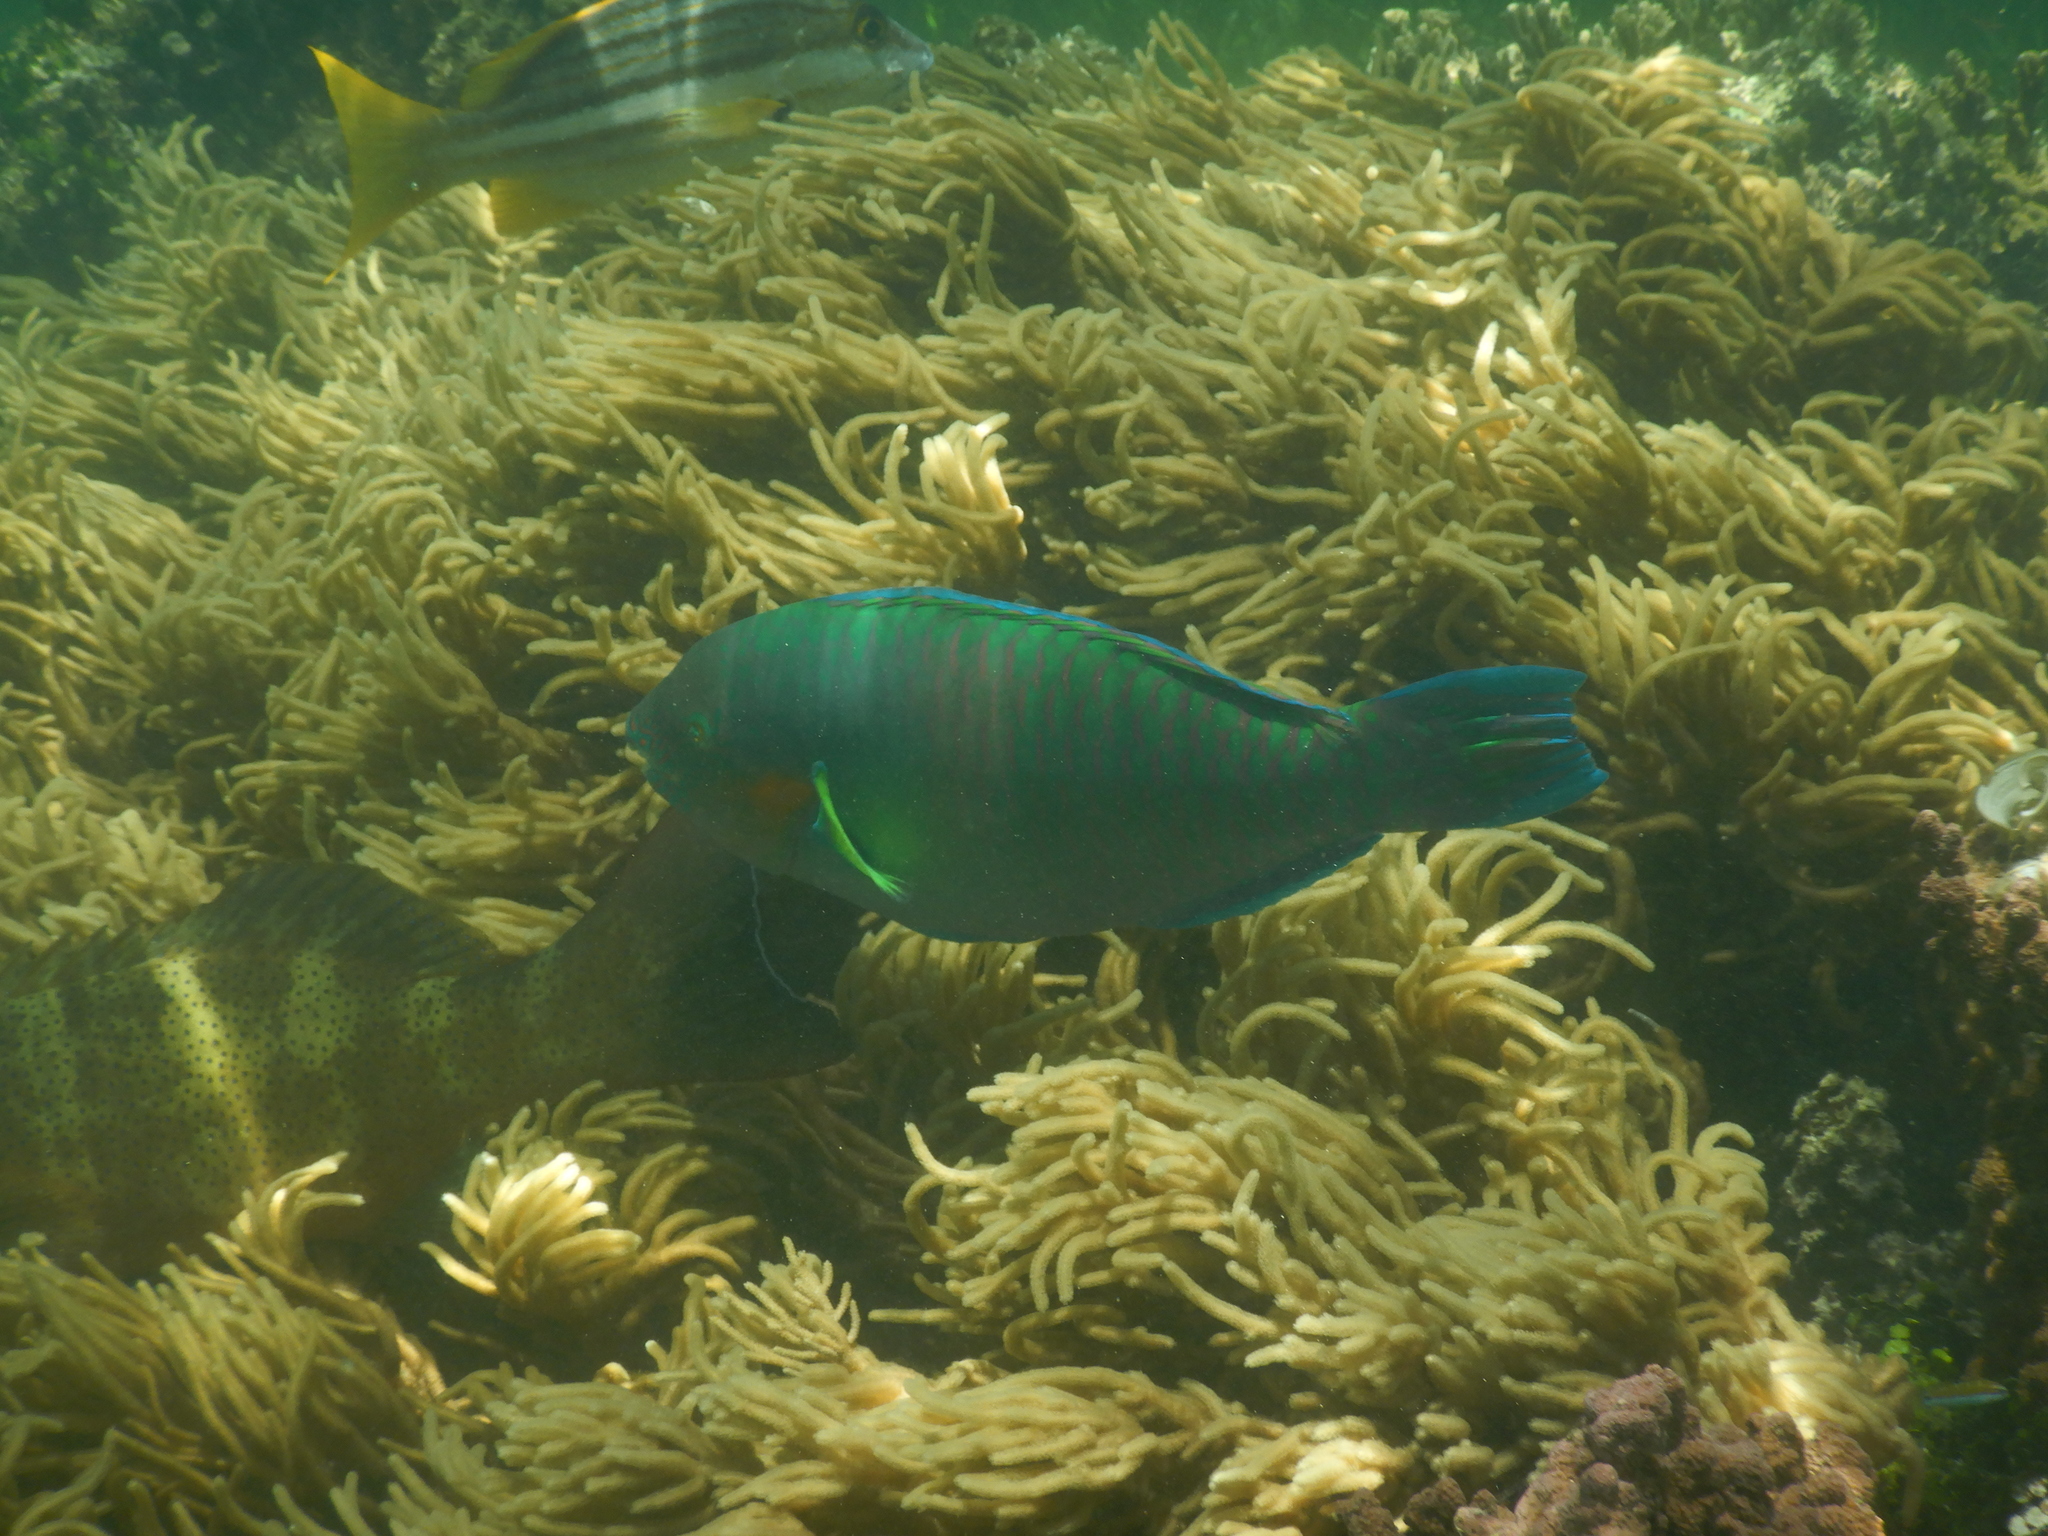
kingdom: Animalia
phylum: Chordata
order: Perciformes
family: Scaridae
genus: Scarus
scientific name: Scarus rivulatus
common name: Surf parrotfish
